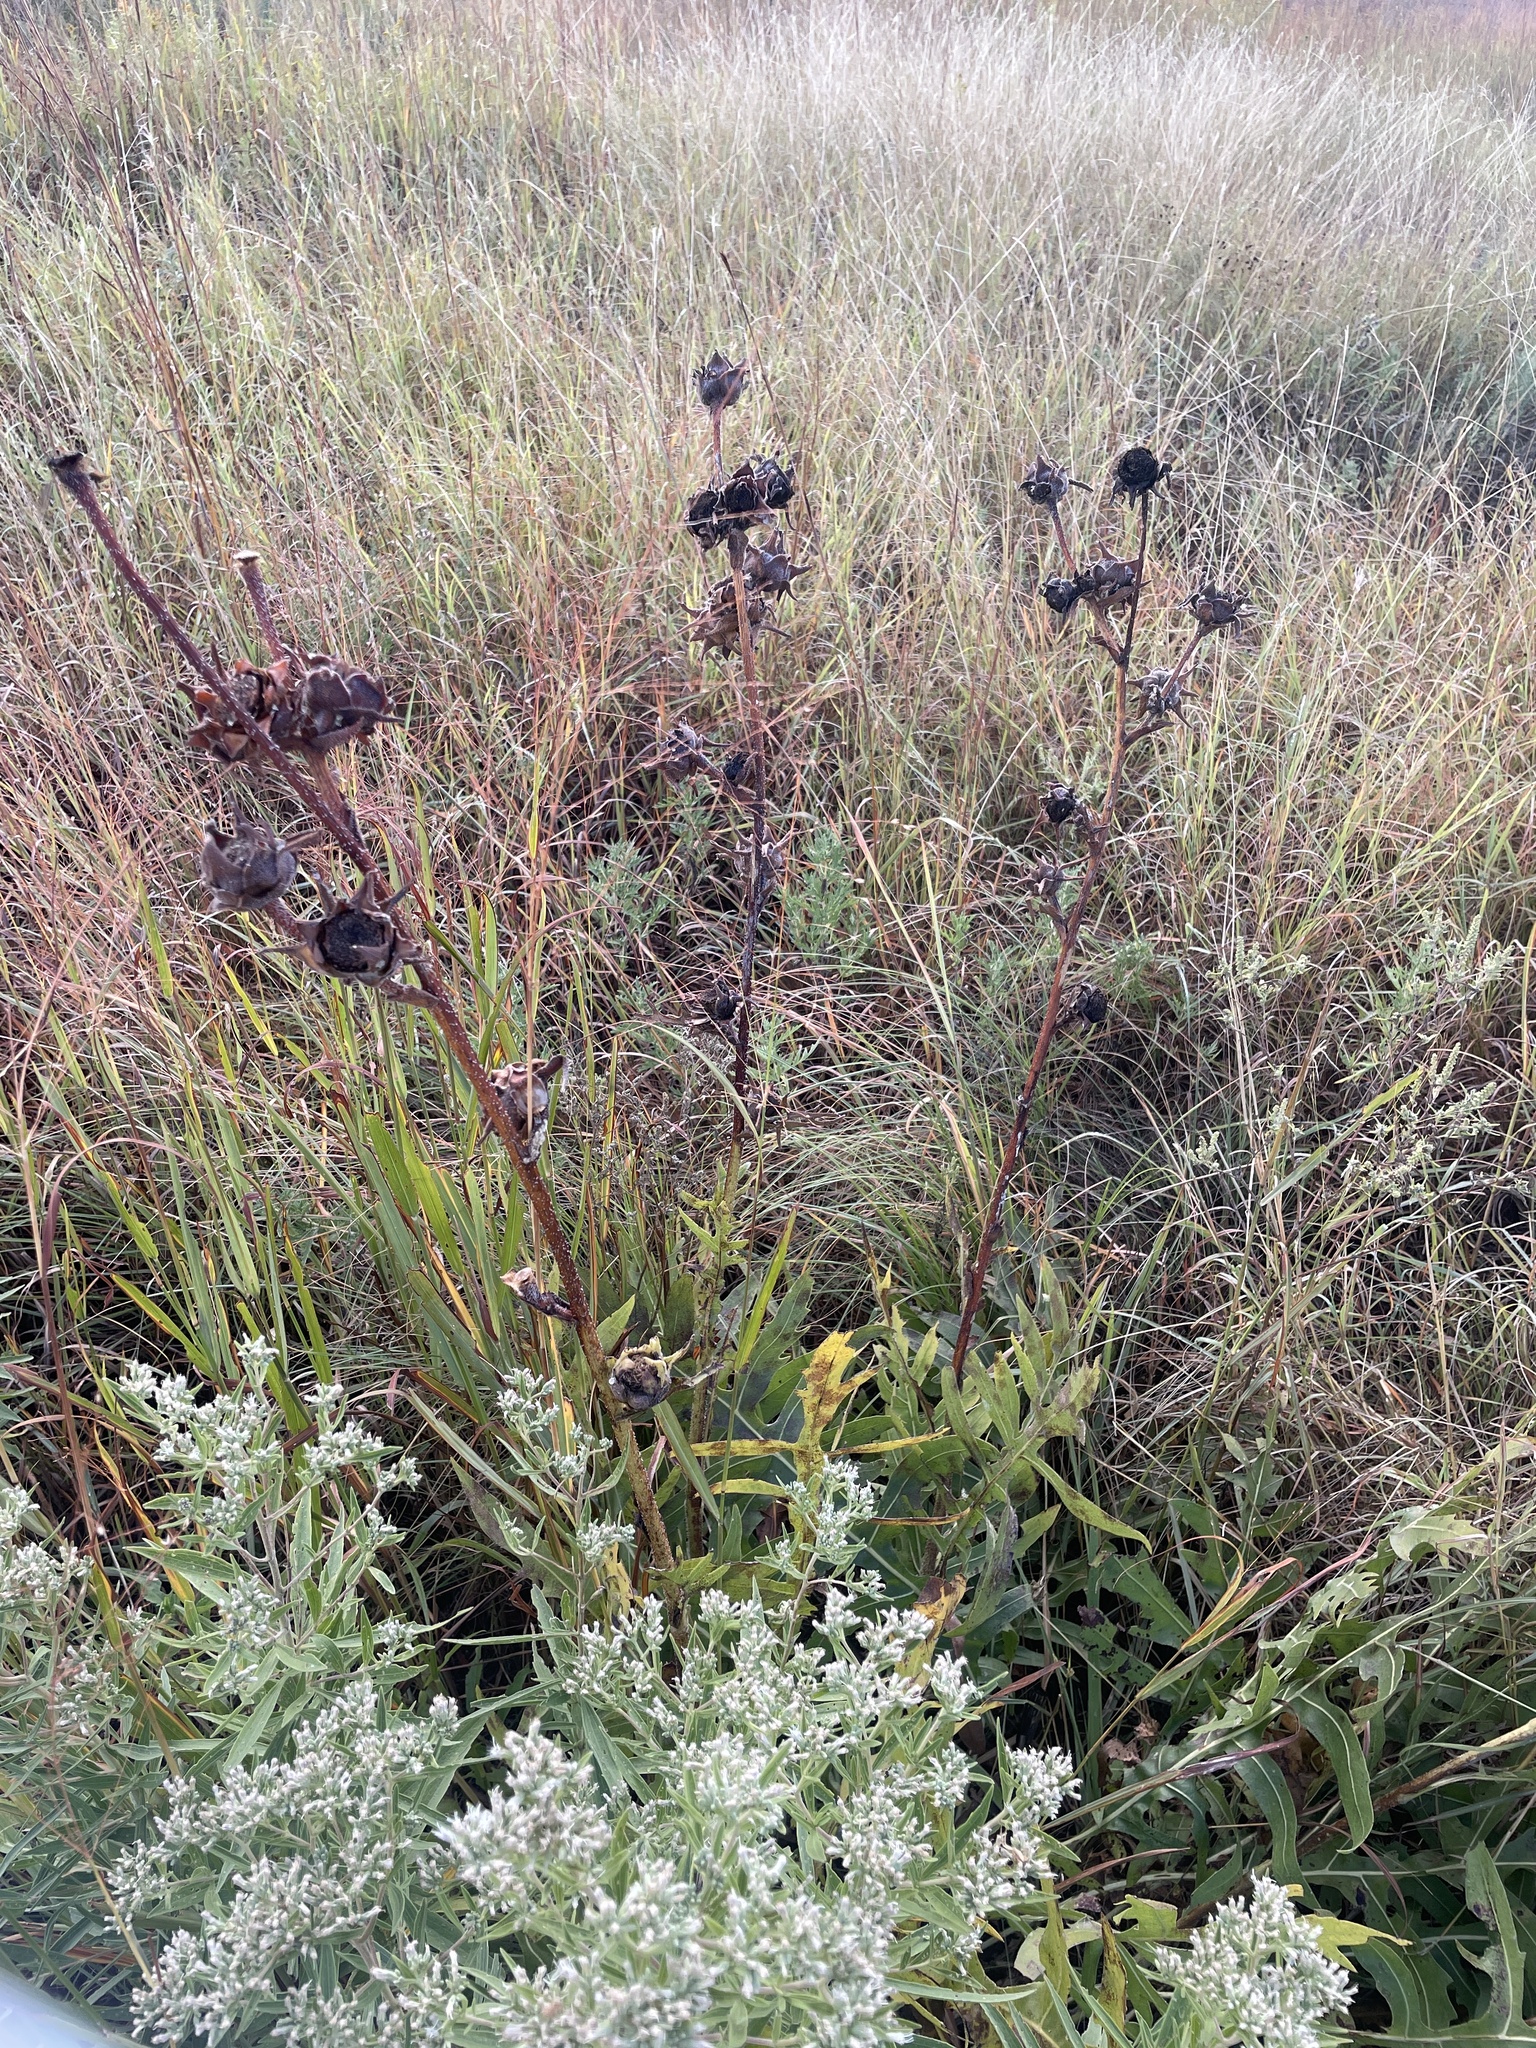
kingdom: Plantae
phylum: Tracheophyta
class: Magnoliopsida
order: Asterales
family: Asteraceae
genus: Silphium
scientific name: Silphium laciniatum
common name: Polarplant
